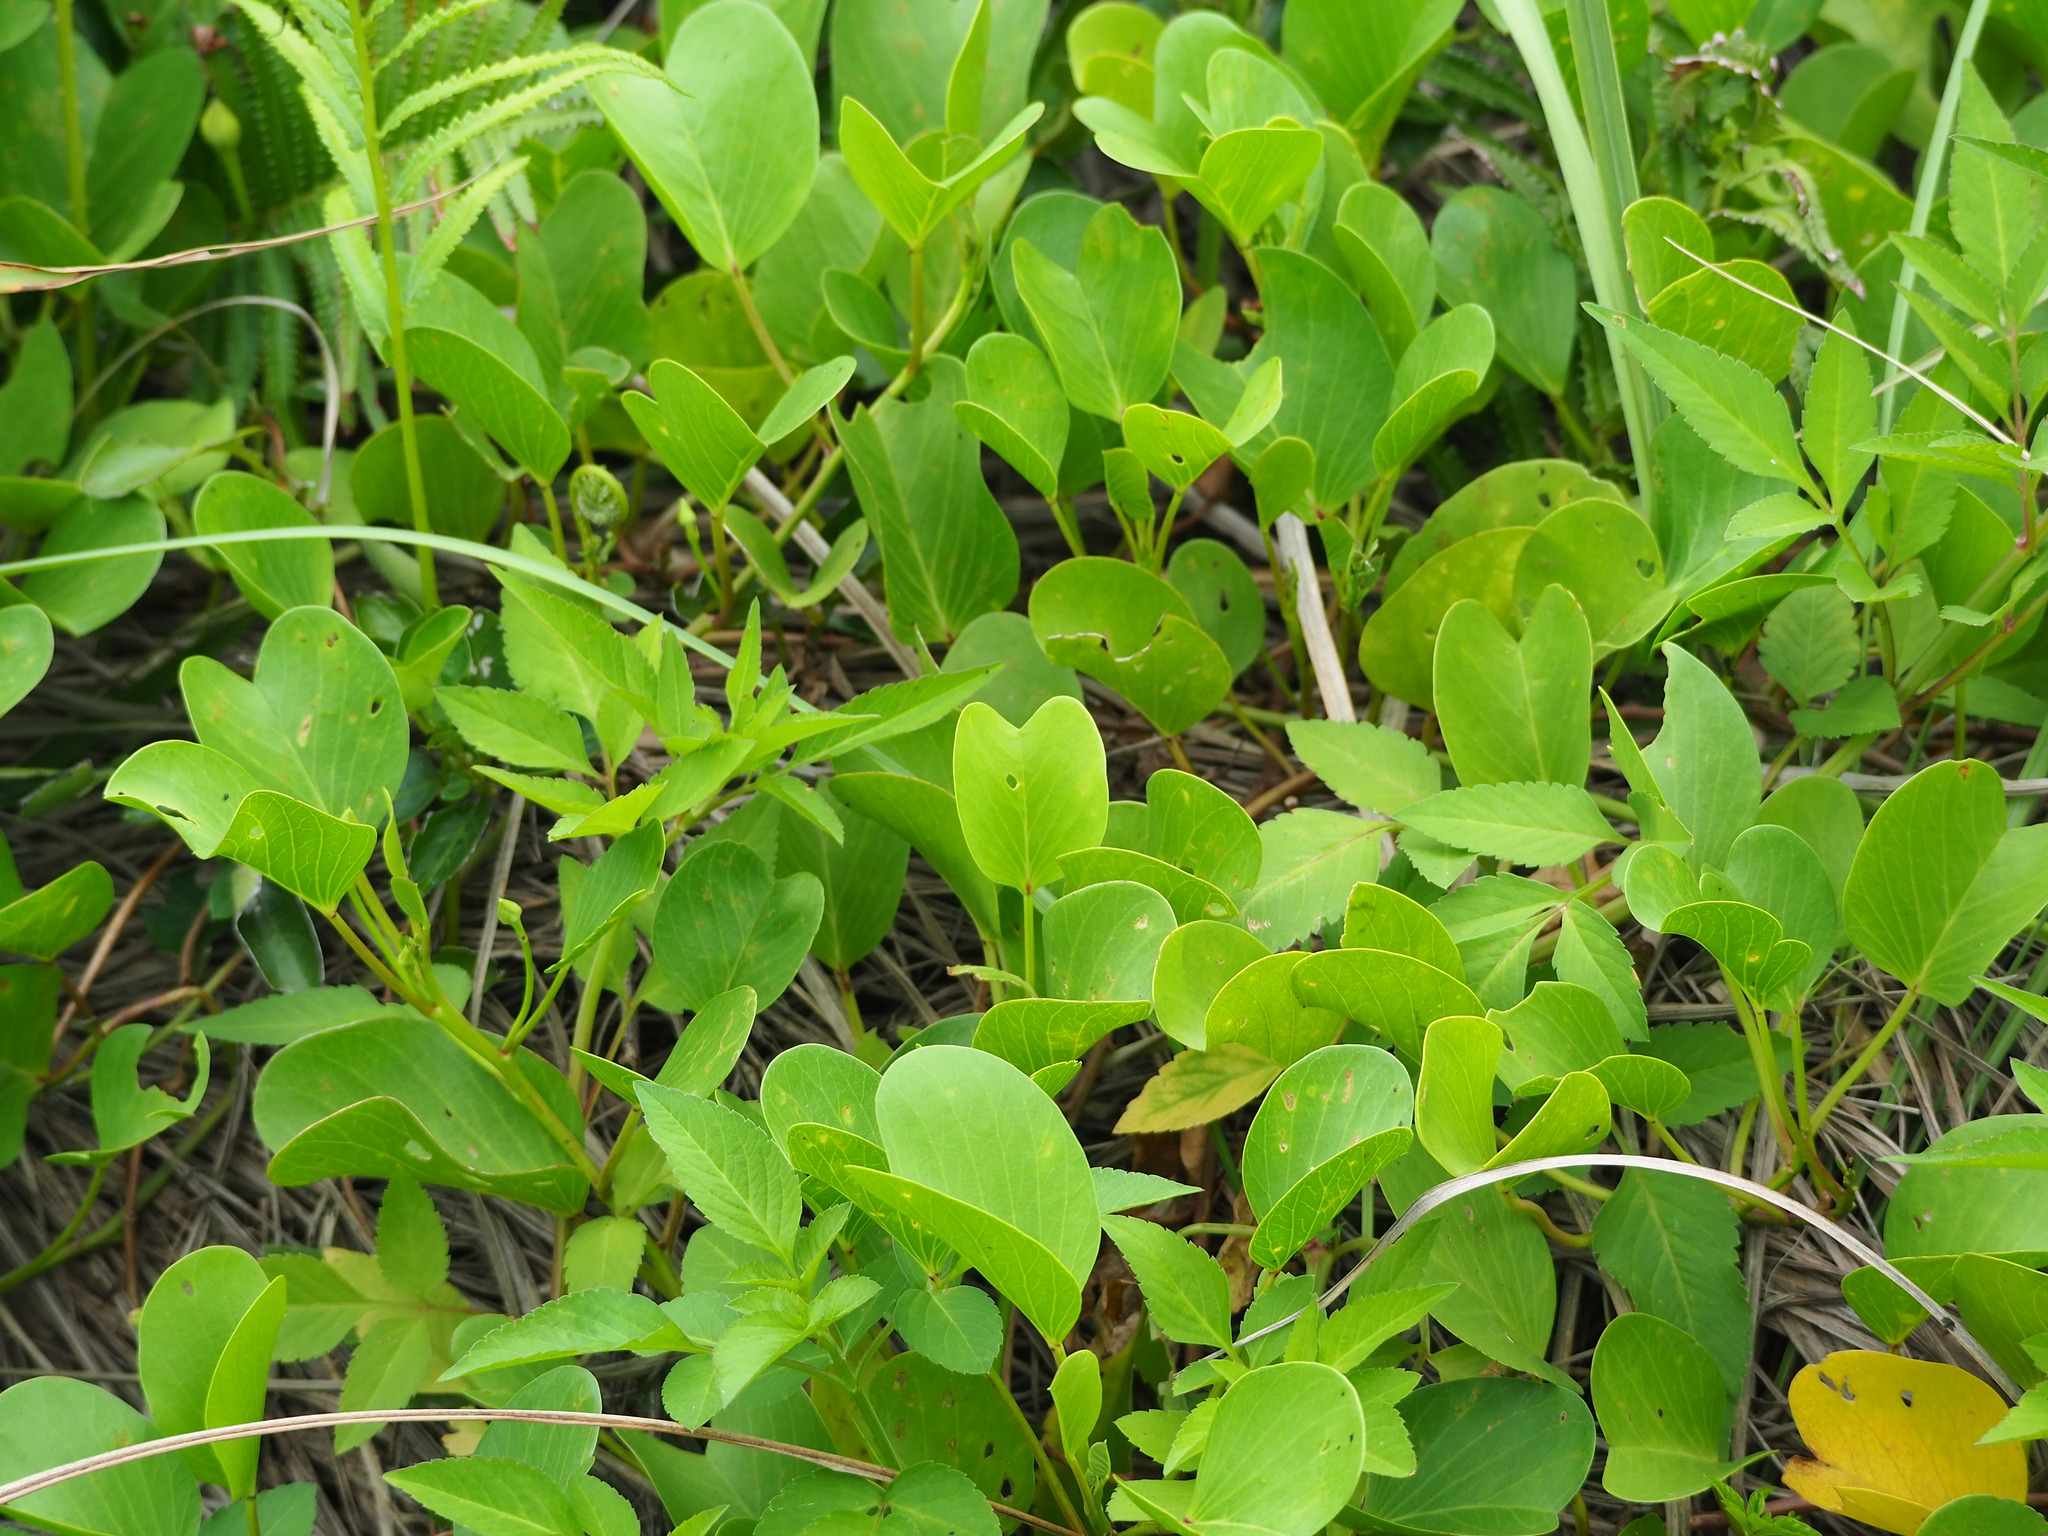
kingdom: Plantae
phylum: Tracheophyta
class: Magnoliopsida
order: Solanales
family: Convolvulaceae
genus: Ipomoea
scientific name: Ipomoea pes-caprae
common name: Beach morning glory
